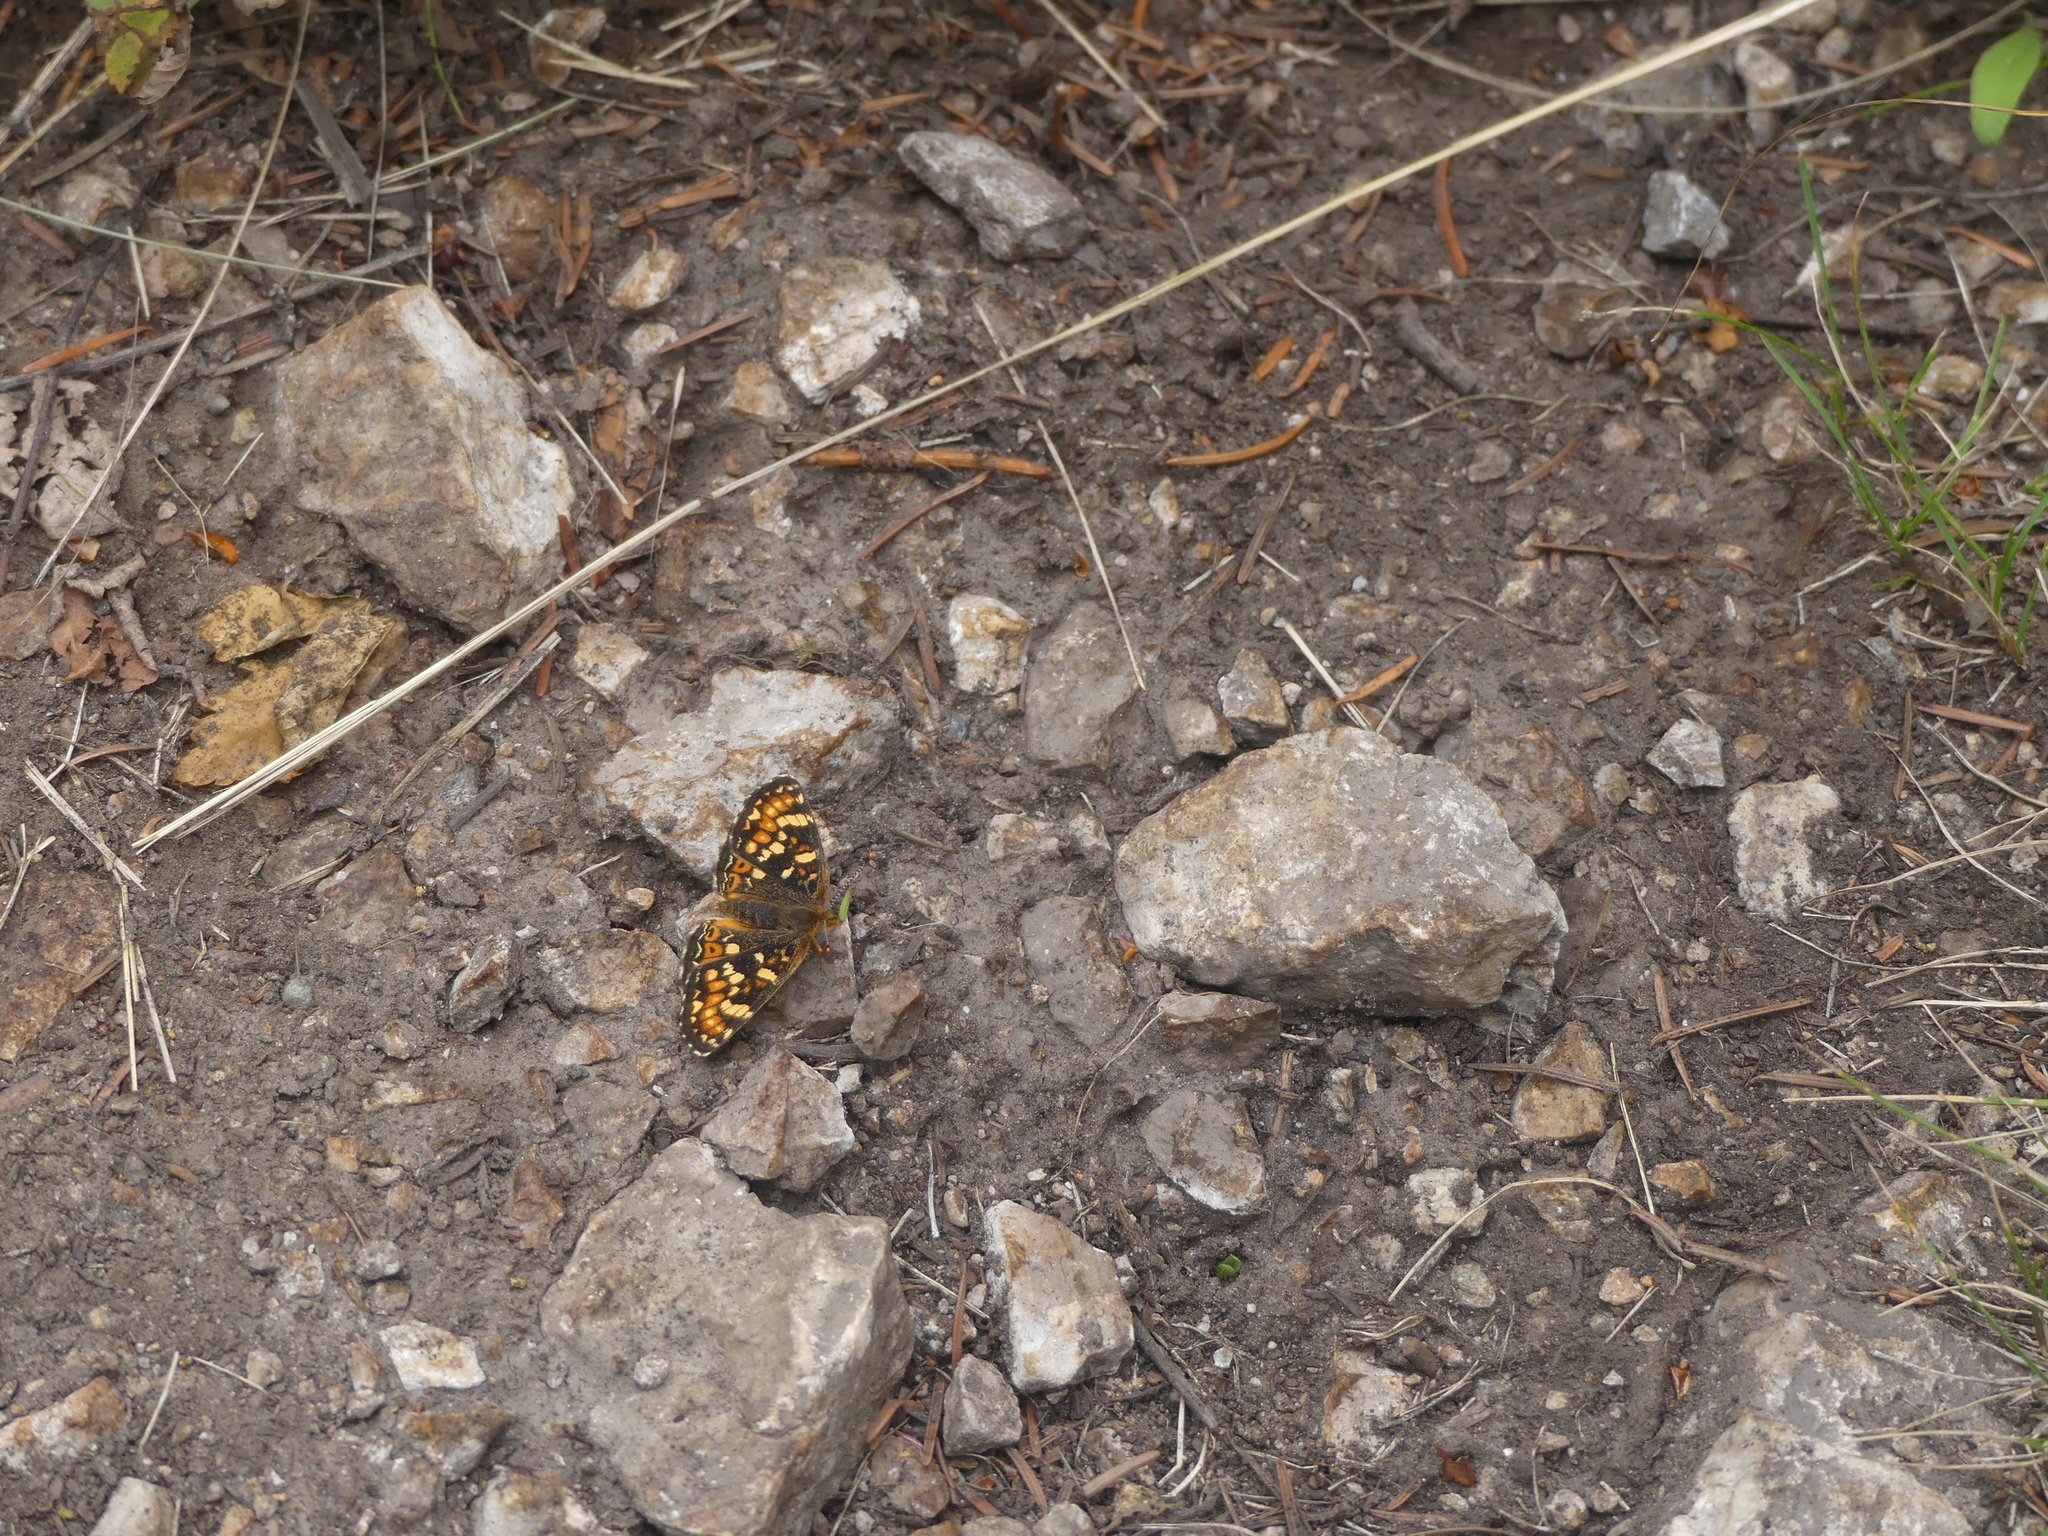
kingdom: Animalia
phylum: Arthropoda
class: Insecta
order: Lepidoptera
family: Nymphalidae
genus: Phyciodes
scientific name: Phyciodes tharos
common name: Pearl crescent
